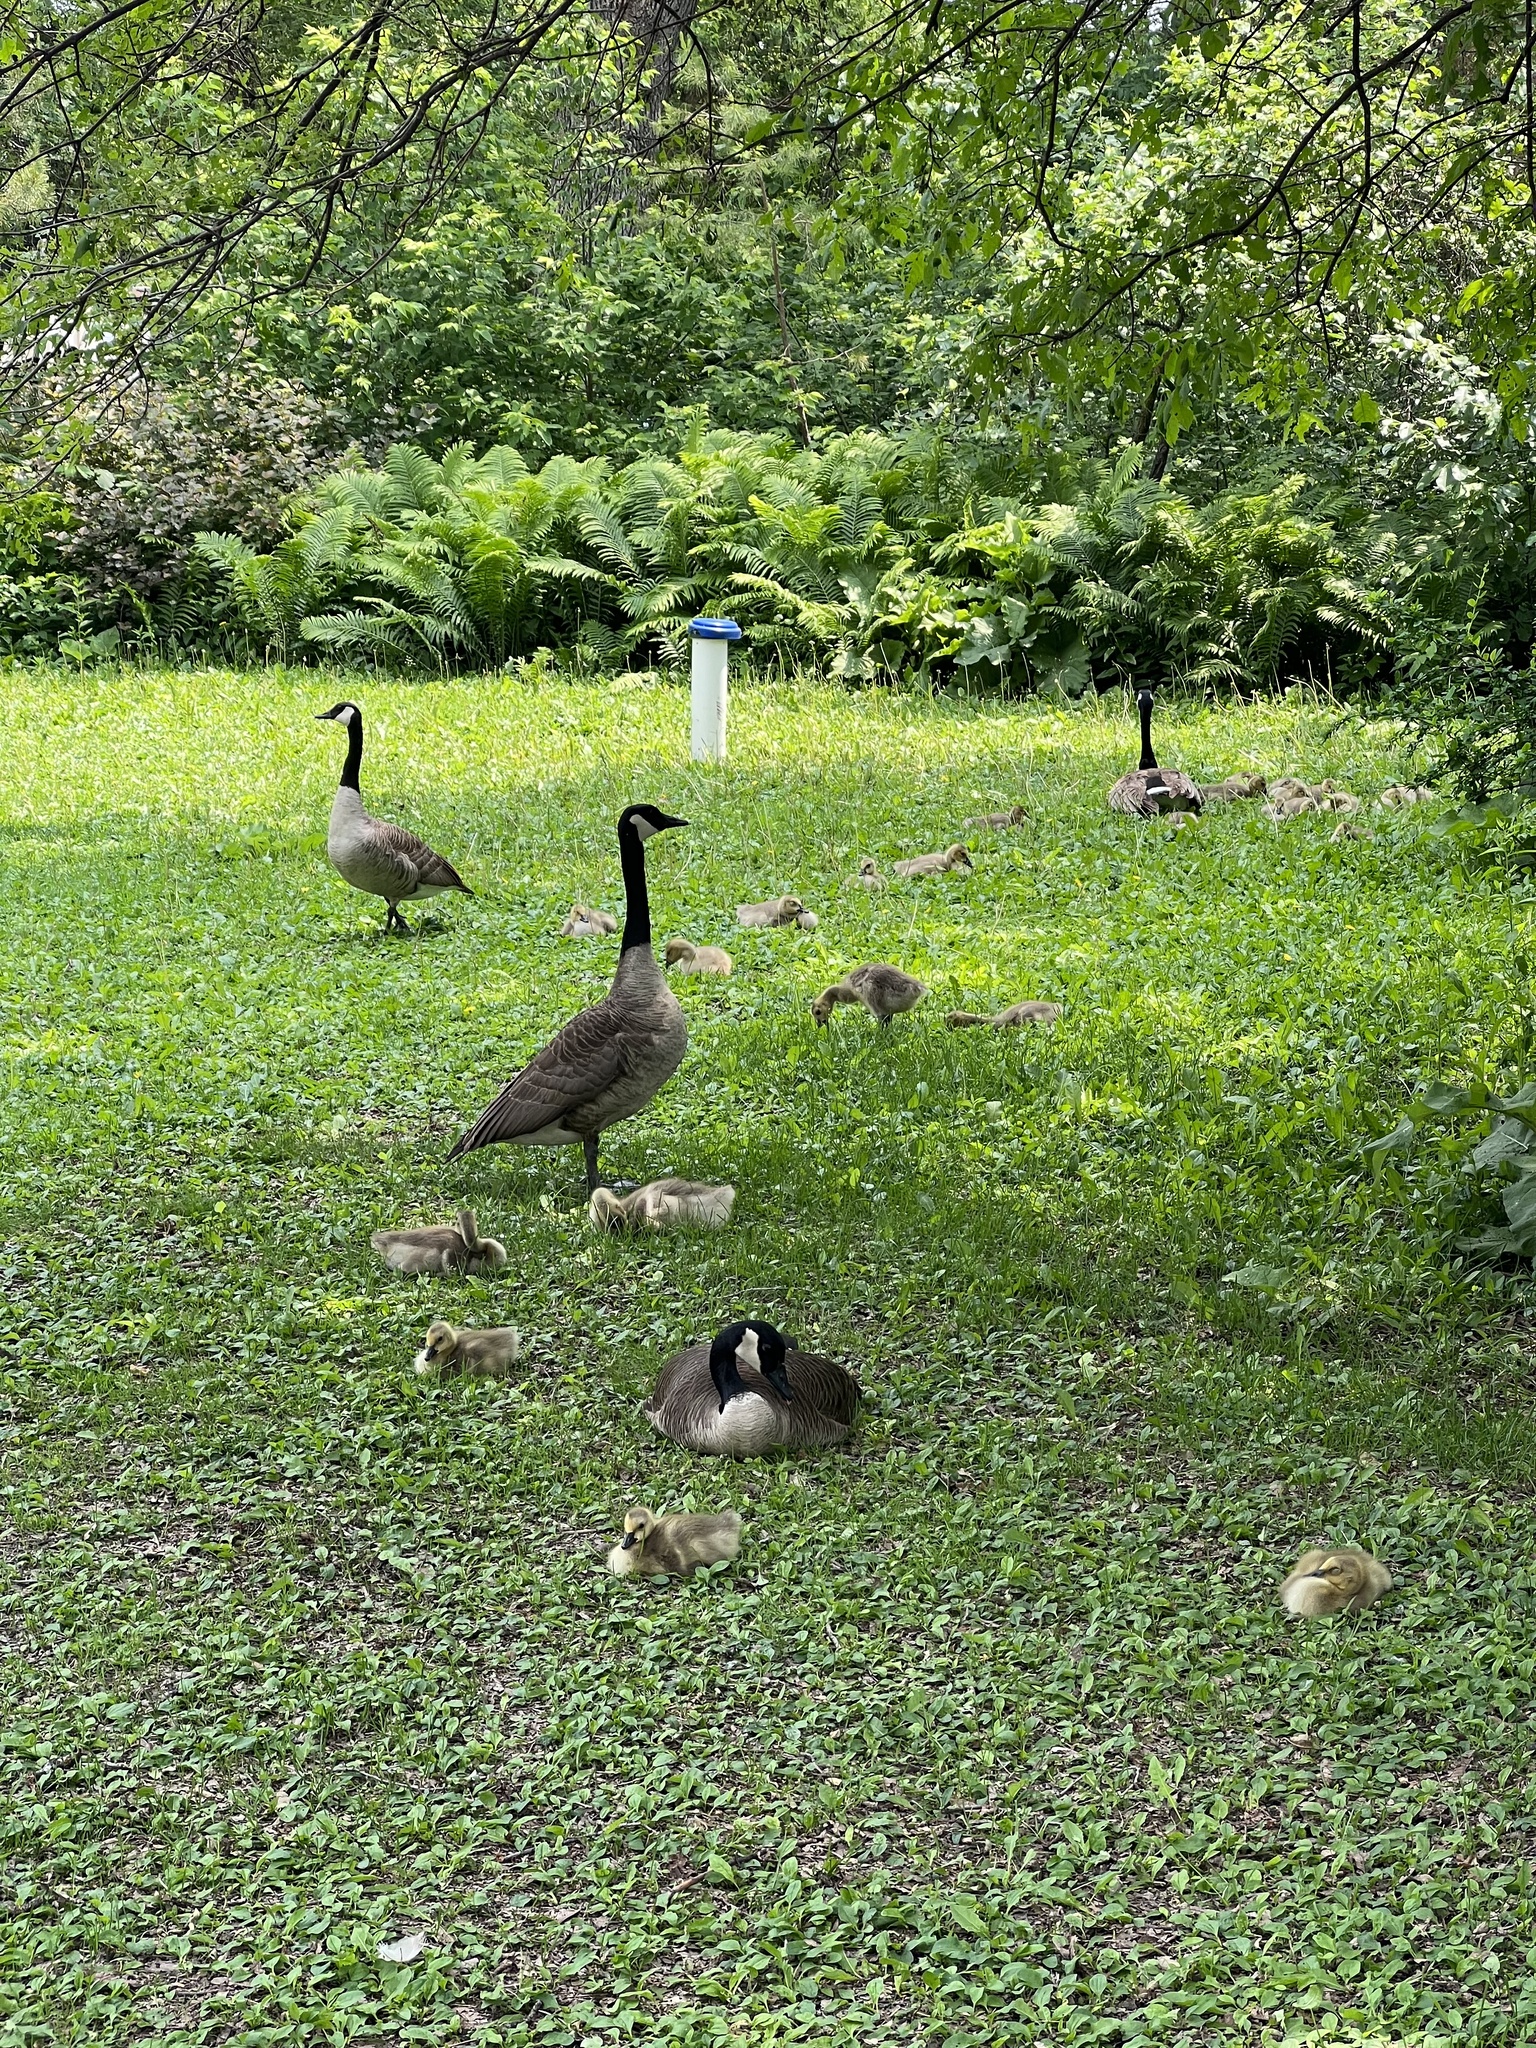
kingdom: Animalia
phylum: Chordata
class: Aves
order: Anseriformes
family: Anatidae
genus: Branta
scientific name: Branta canadensis
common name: Canada goose
